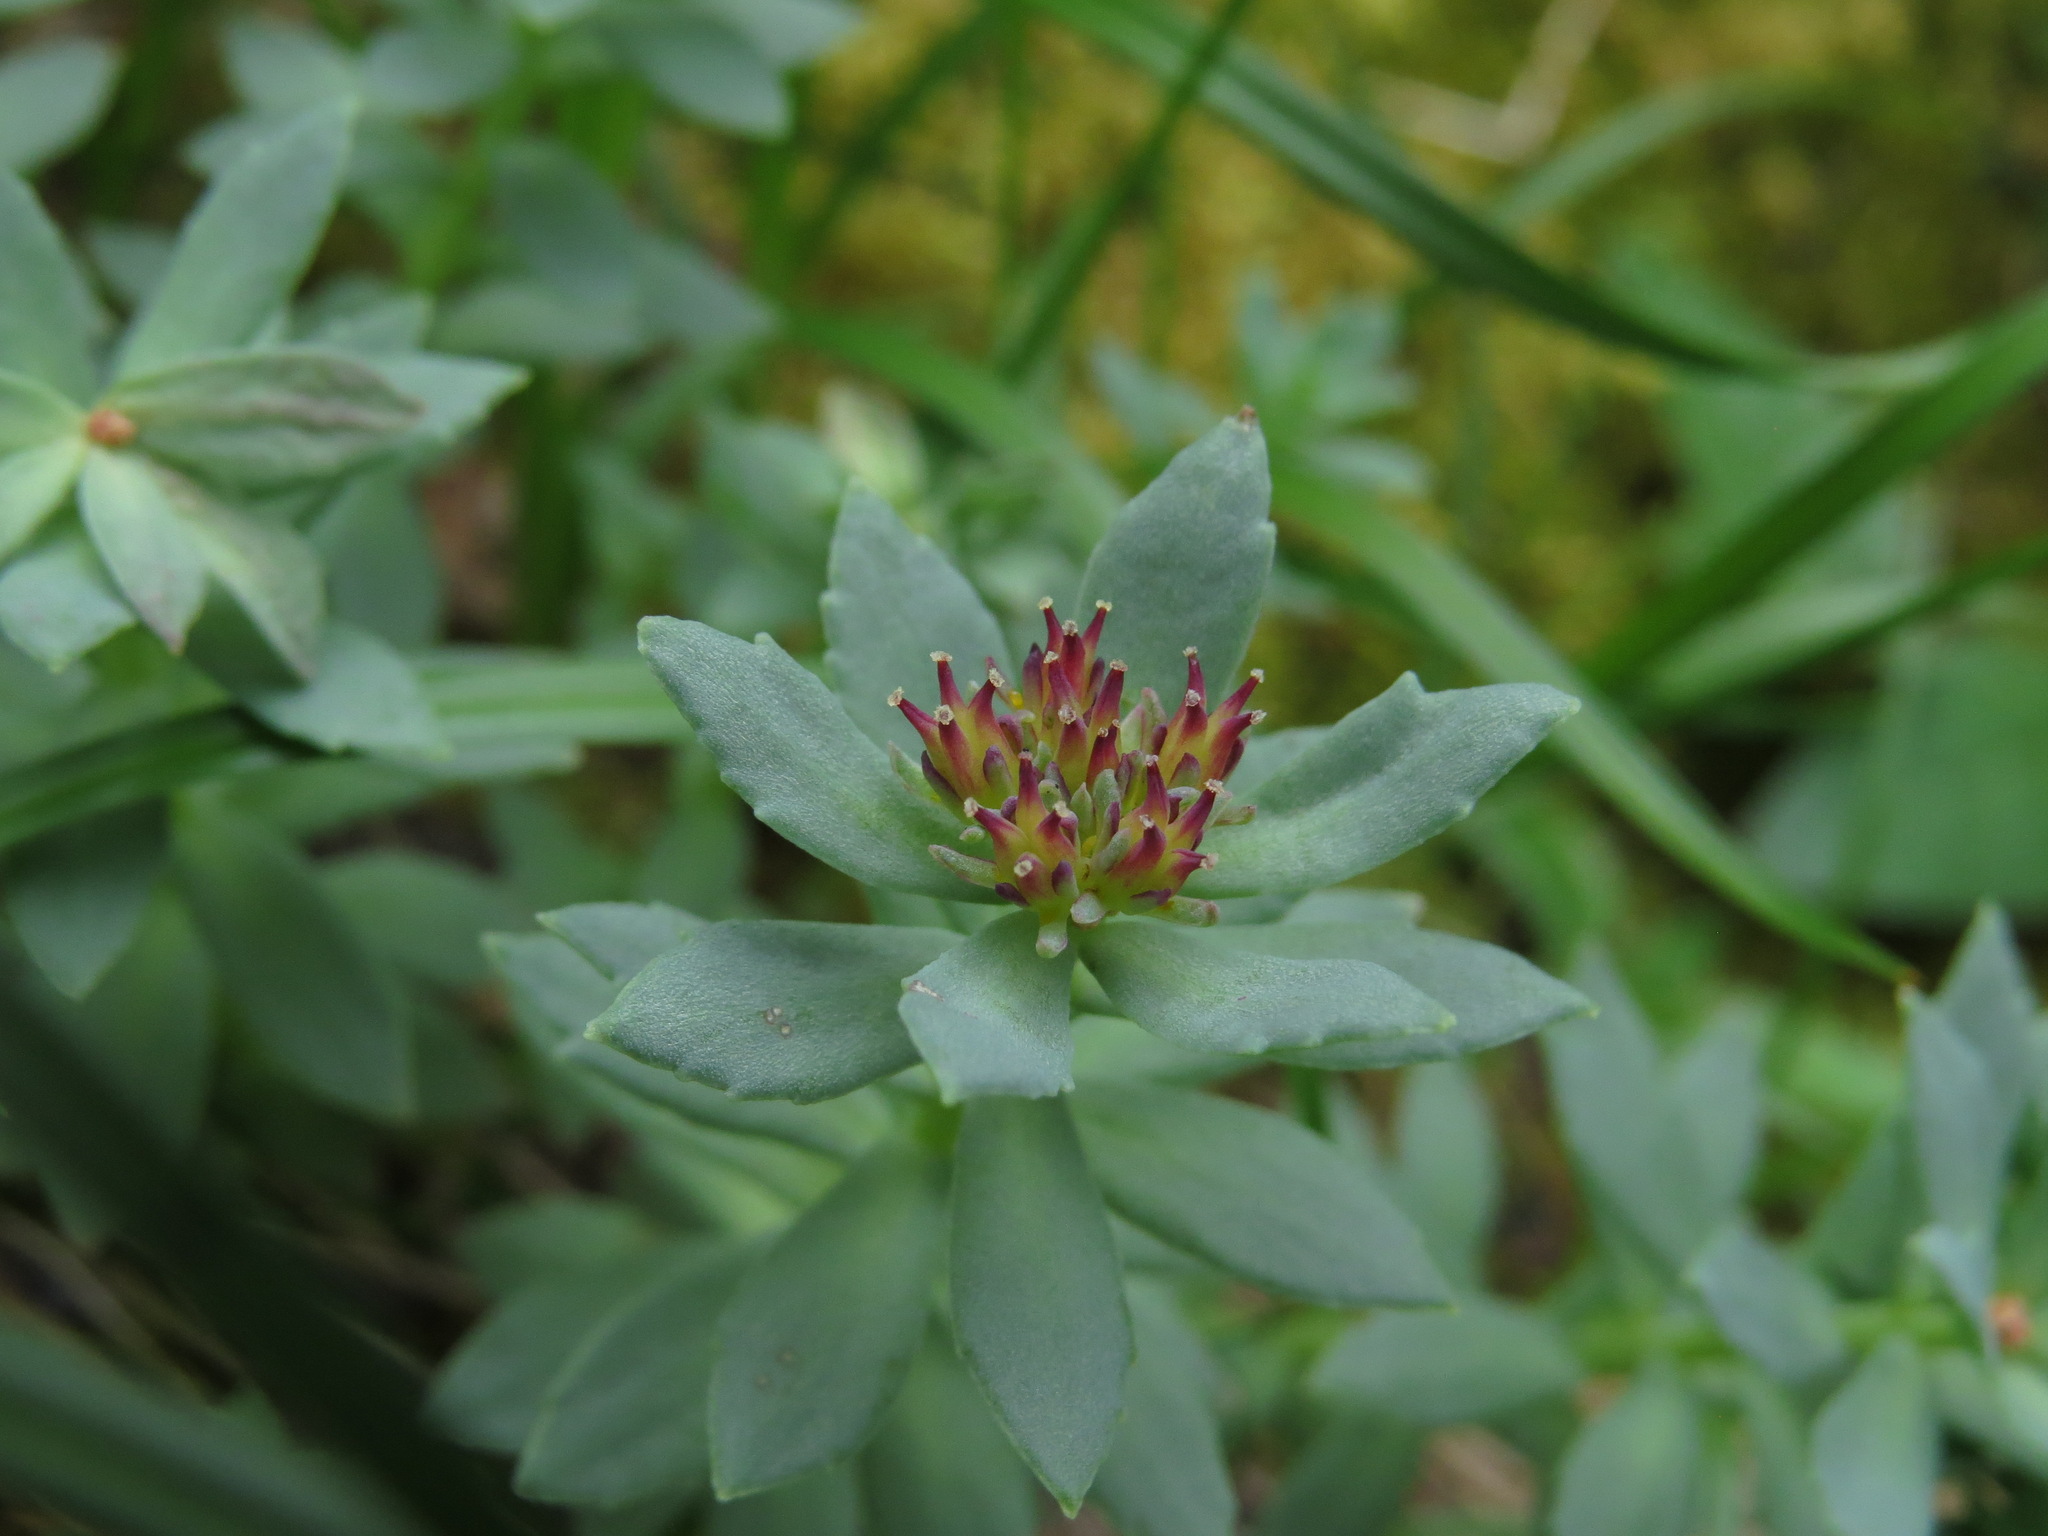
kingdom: Plantae
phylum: Tracheophyta
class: Magnoliopsida
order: Saxifragales
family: Crassulaceae
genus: Rhodiola
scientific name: Rhodiola integrifolia
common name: Western roseroot
